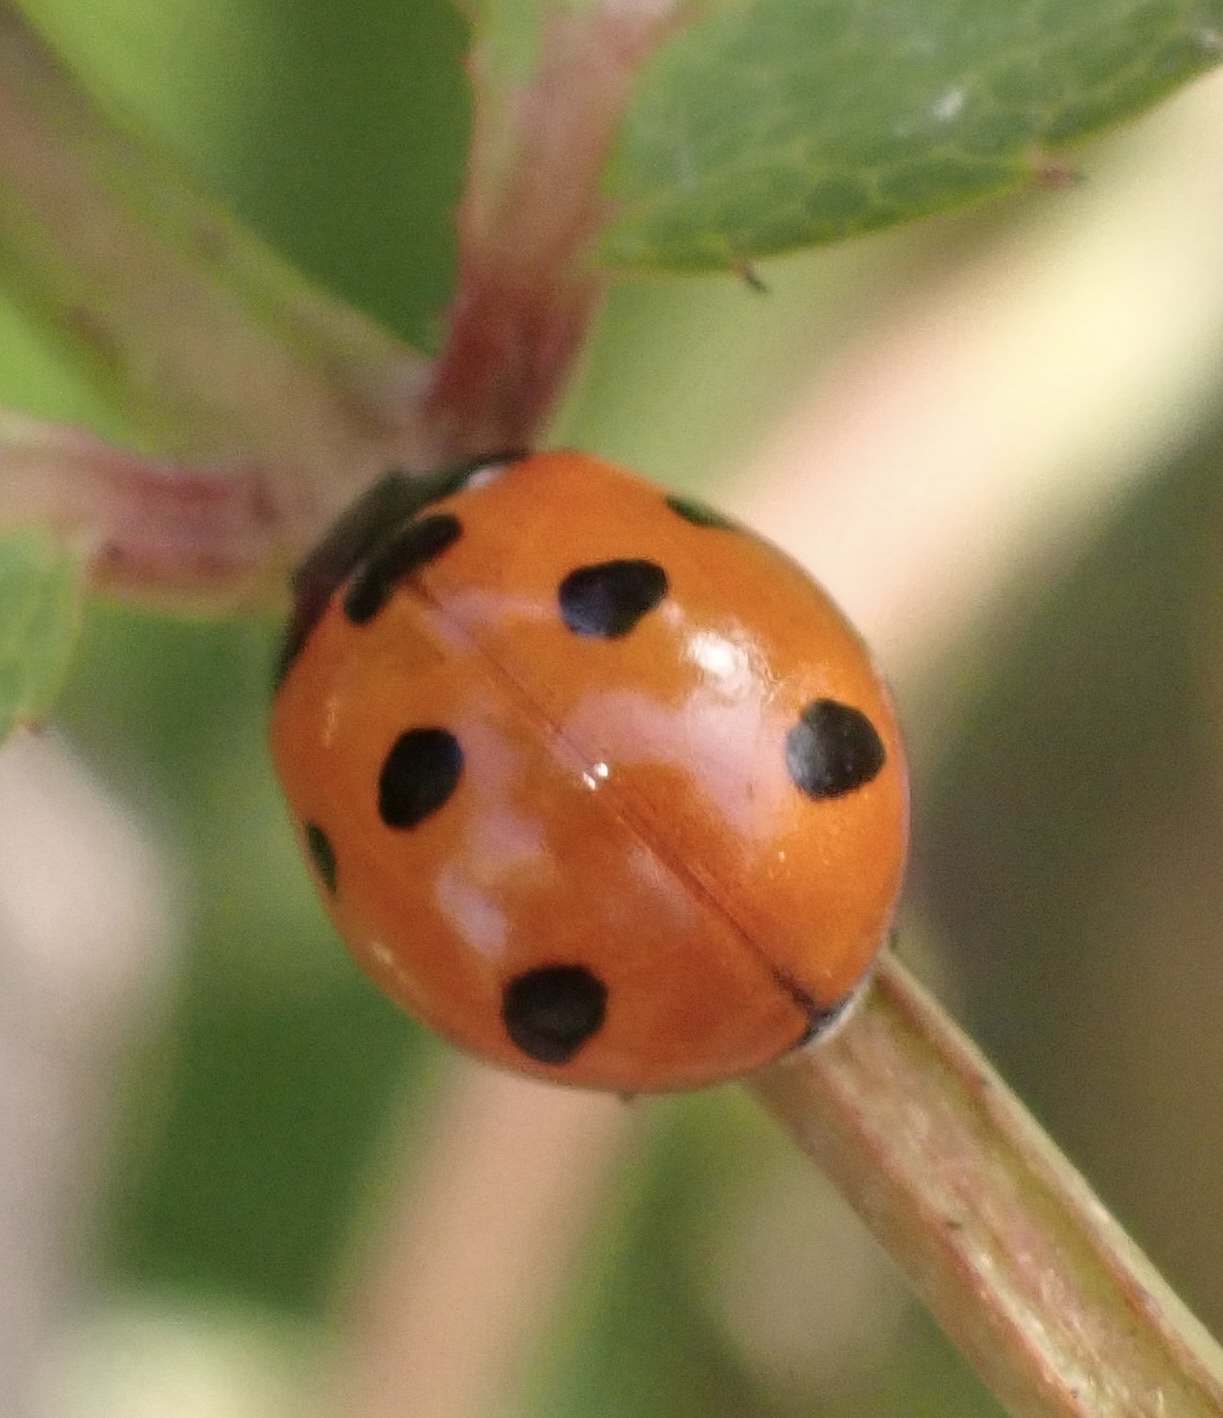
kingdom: Animalia
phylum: Arthropoda
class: Insecta
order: Coleoptera
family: Coccinellidae
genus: Coccinella
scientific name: Coccinella algerica
